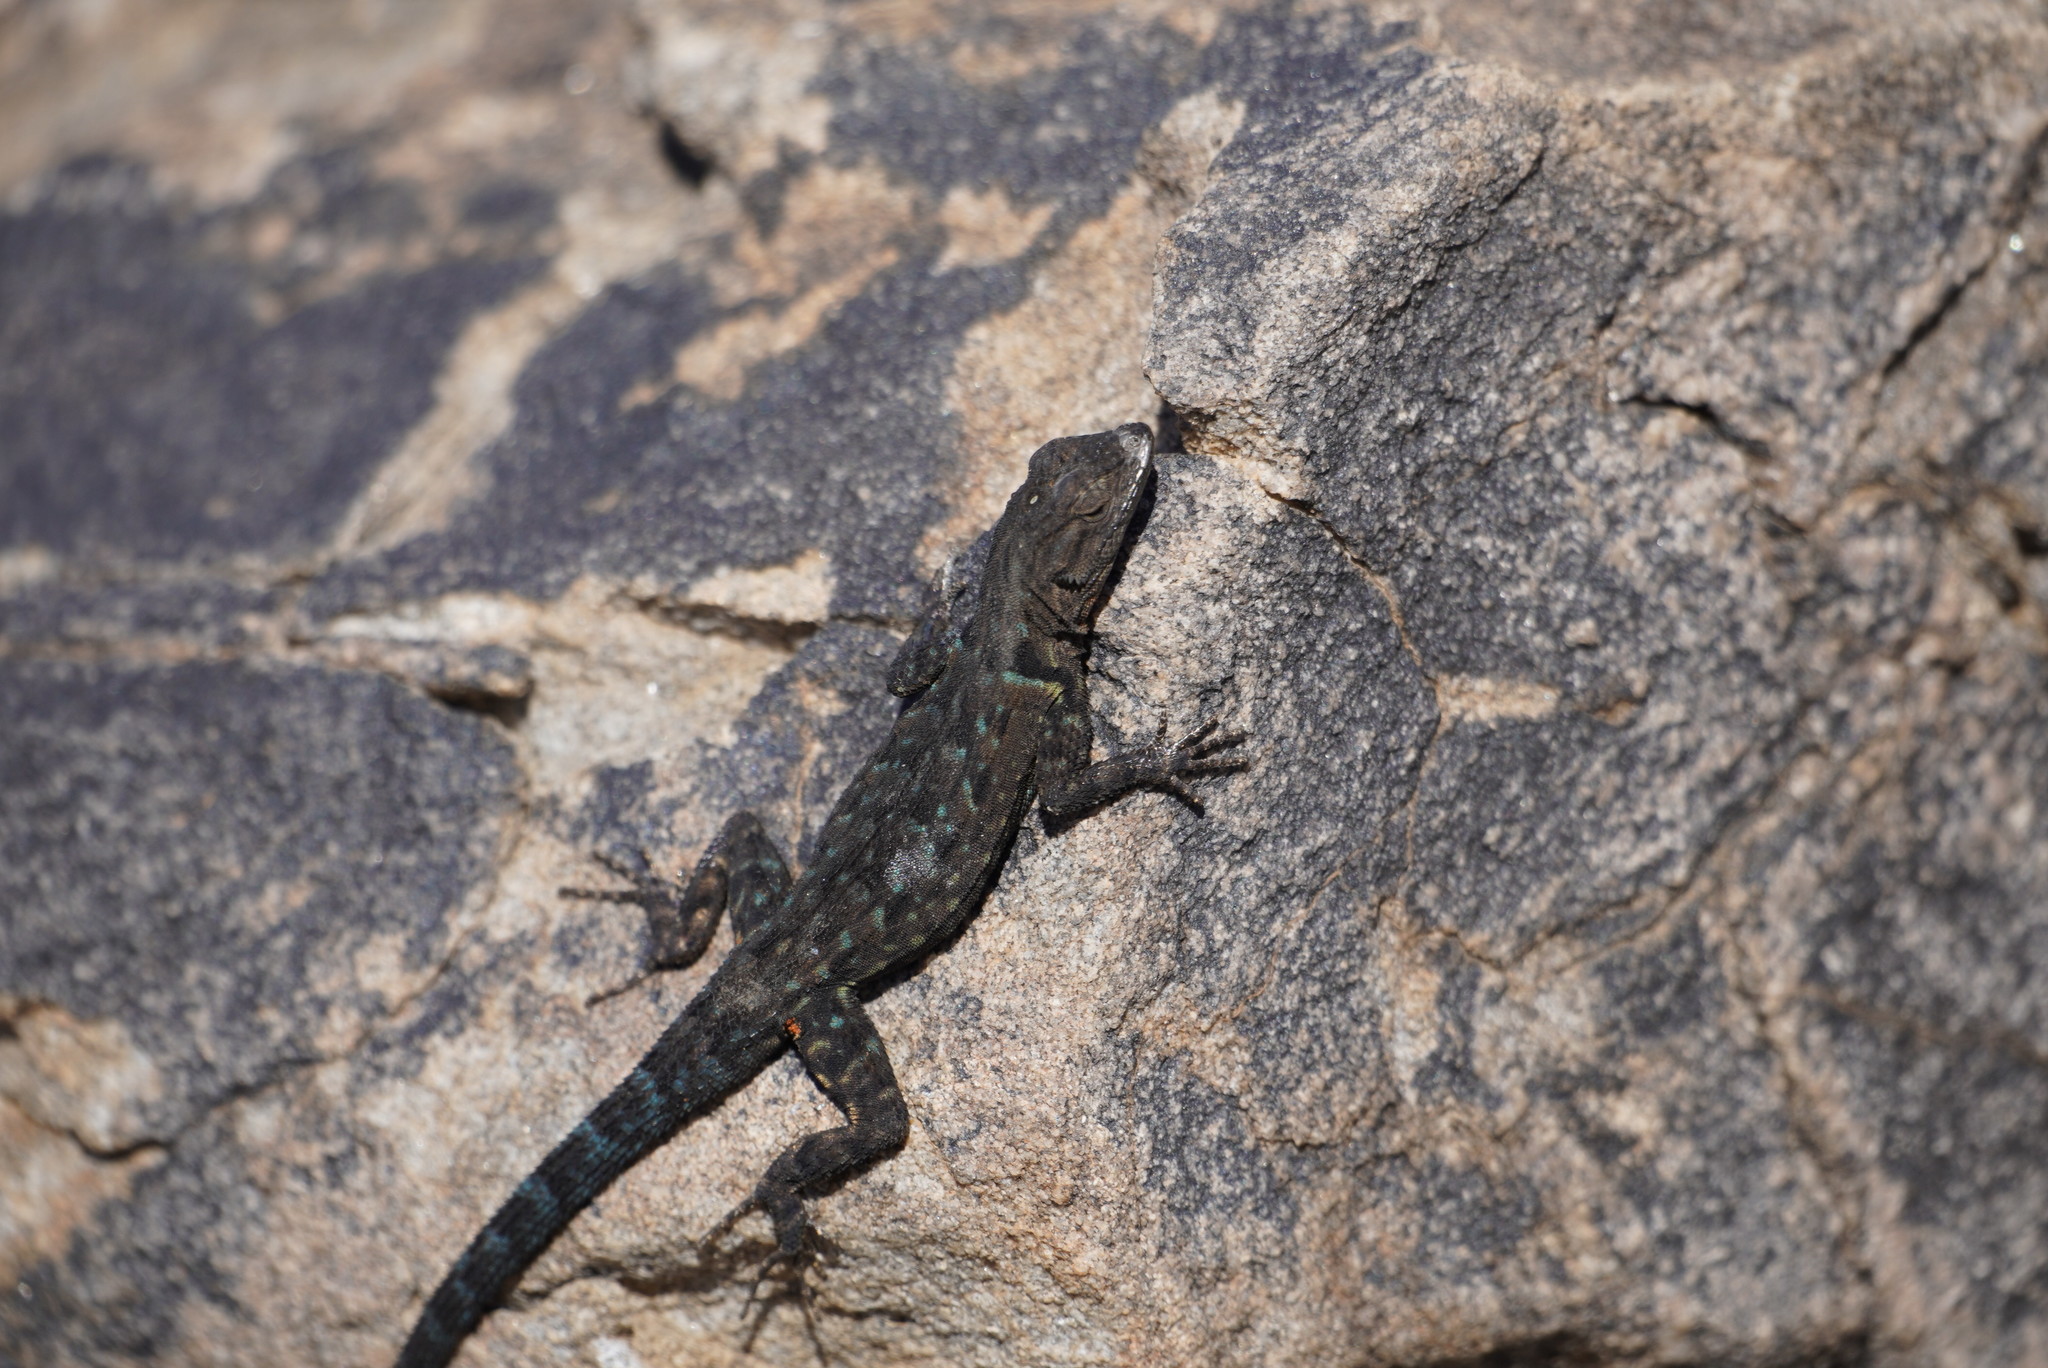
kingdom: Animalia
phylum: Chordata
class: Squamata
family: Phrynosomatidae
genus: Urosaurus
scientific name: Urosaurus ornatus
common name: Ornate tree lizard
